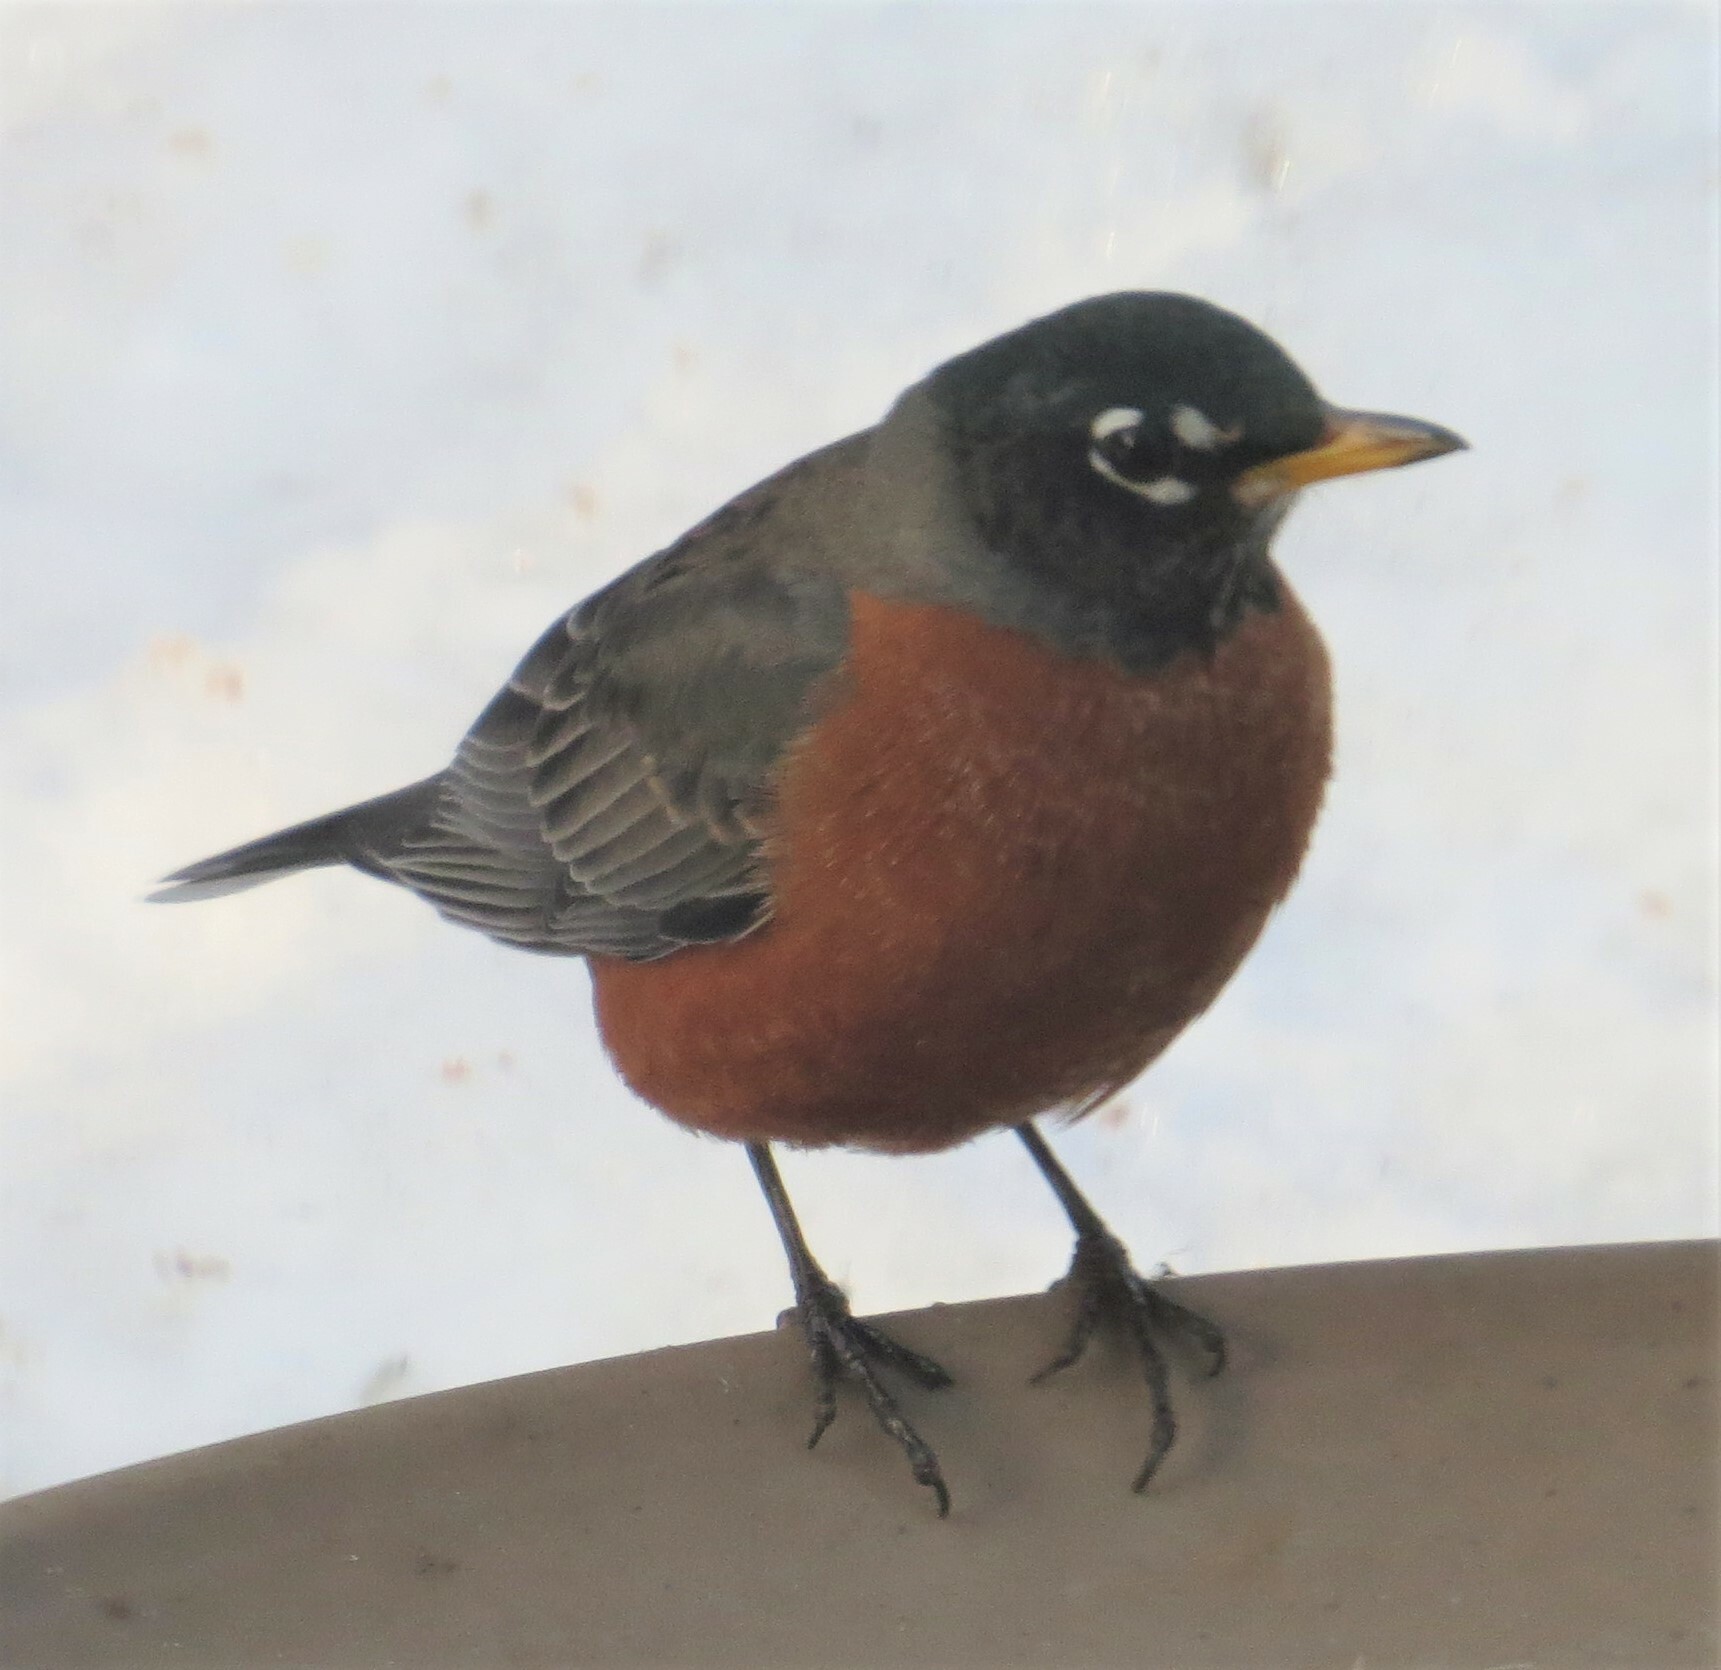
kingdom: Animalia
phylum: Chordata
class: Aves
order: Passeriformes
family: Turdidae
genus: Turdus
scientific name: Turdus migratorius
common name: American robin
